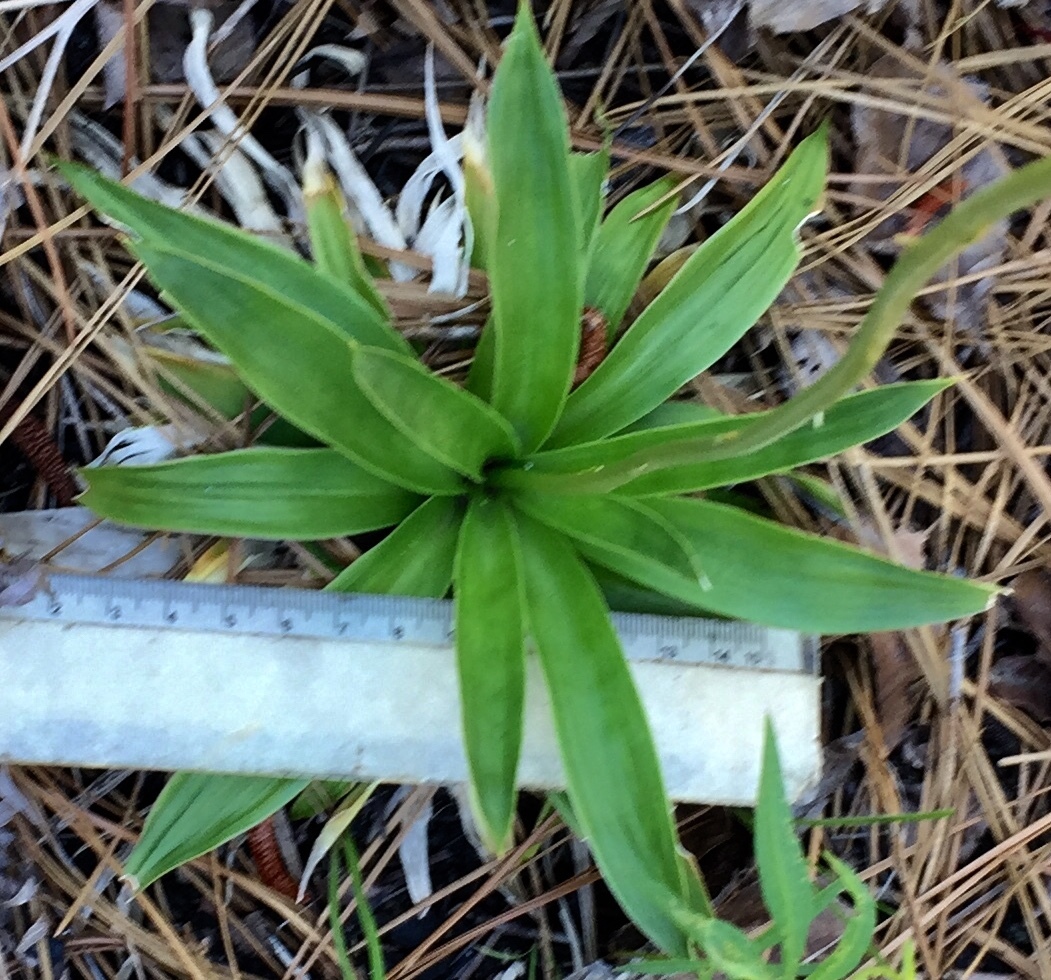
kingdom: Plantae
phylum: Tracheophyta
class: Liliopsida
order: Dioscoreales
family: Nartheciaceae
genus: Aletris
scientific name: Aletris farinosa
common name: Colicroot
